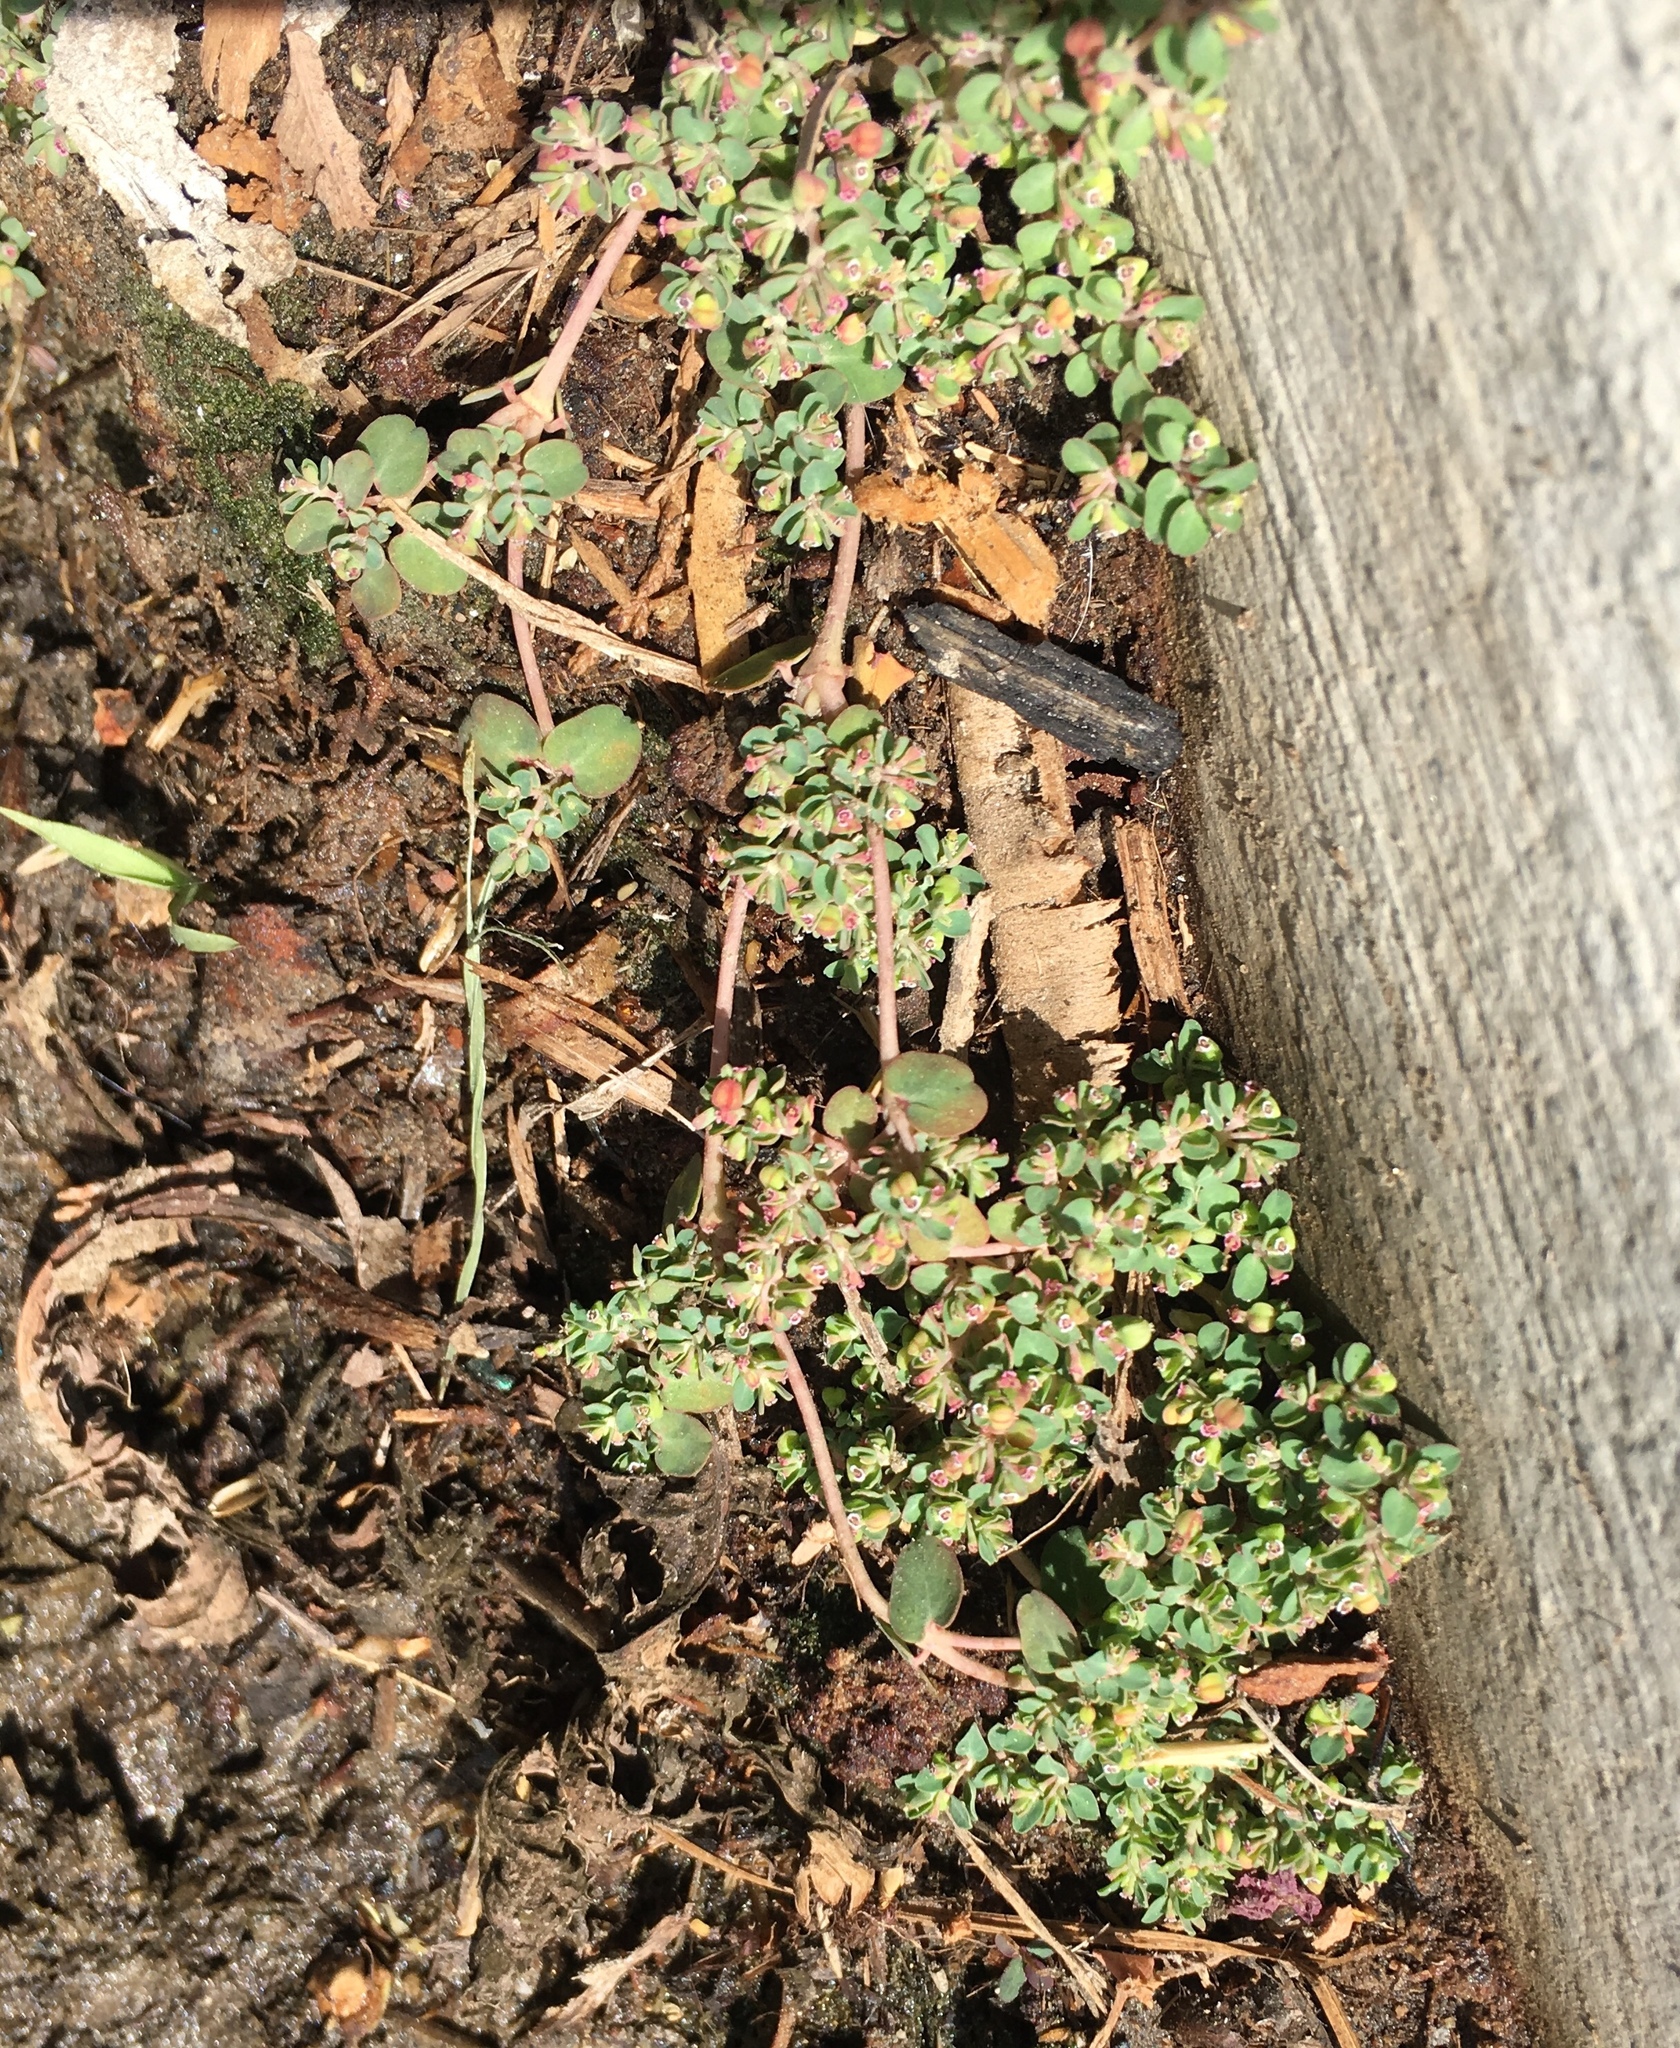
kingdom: Plantae
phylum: Tracheophyta
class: Magnoliopsida
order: Malpighiales
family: Euphorbiaceae
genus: Euphorbia
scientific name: Euphorbia serpens
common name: Matted sandmat
